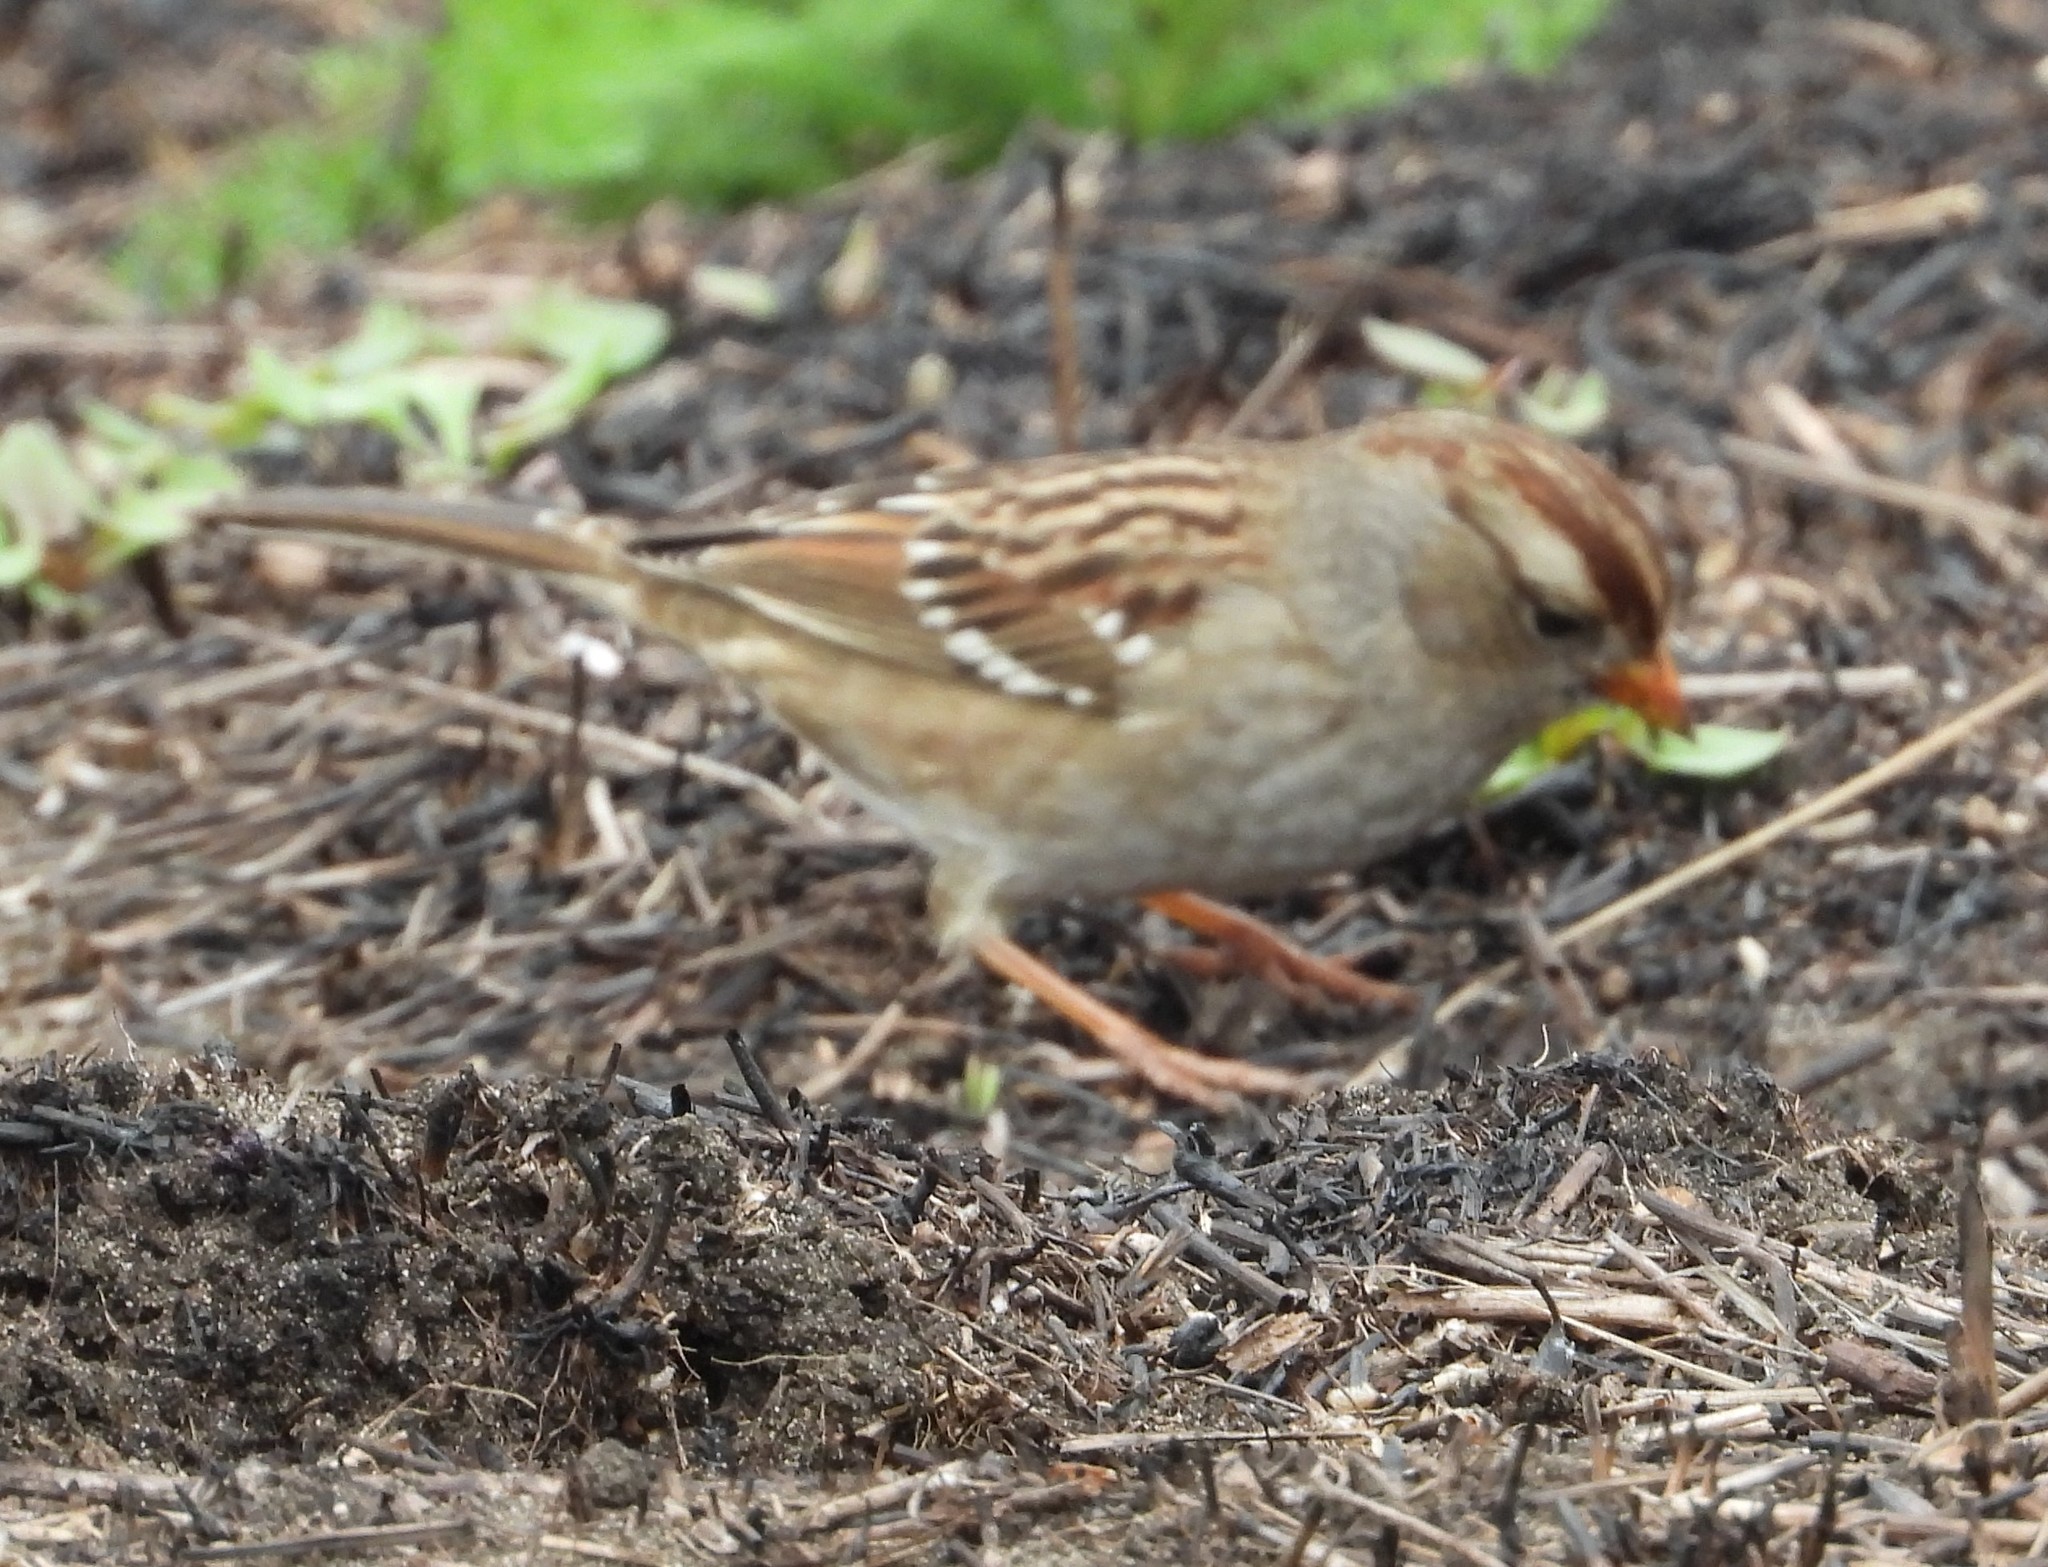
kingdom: Animalia
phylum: Chordata
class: Aves
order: Passeriformes
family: Passerellidae
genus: Zonotrichia
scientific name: Zonotrichia leucophrys
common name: White-crowned sparrow
